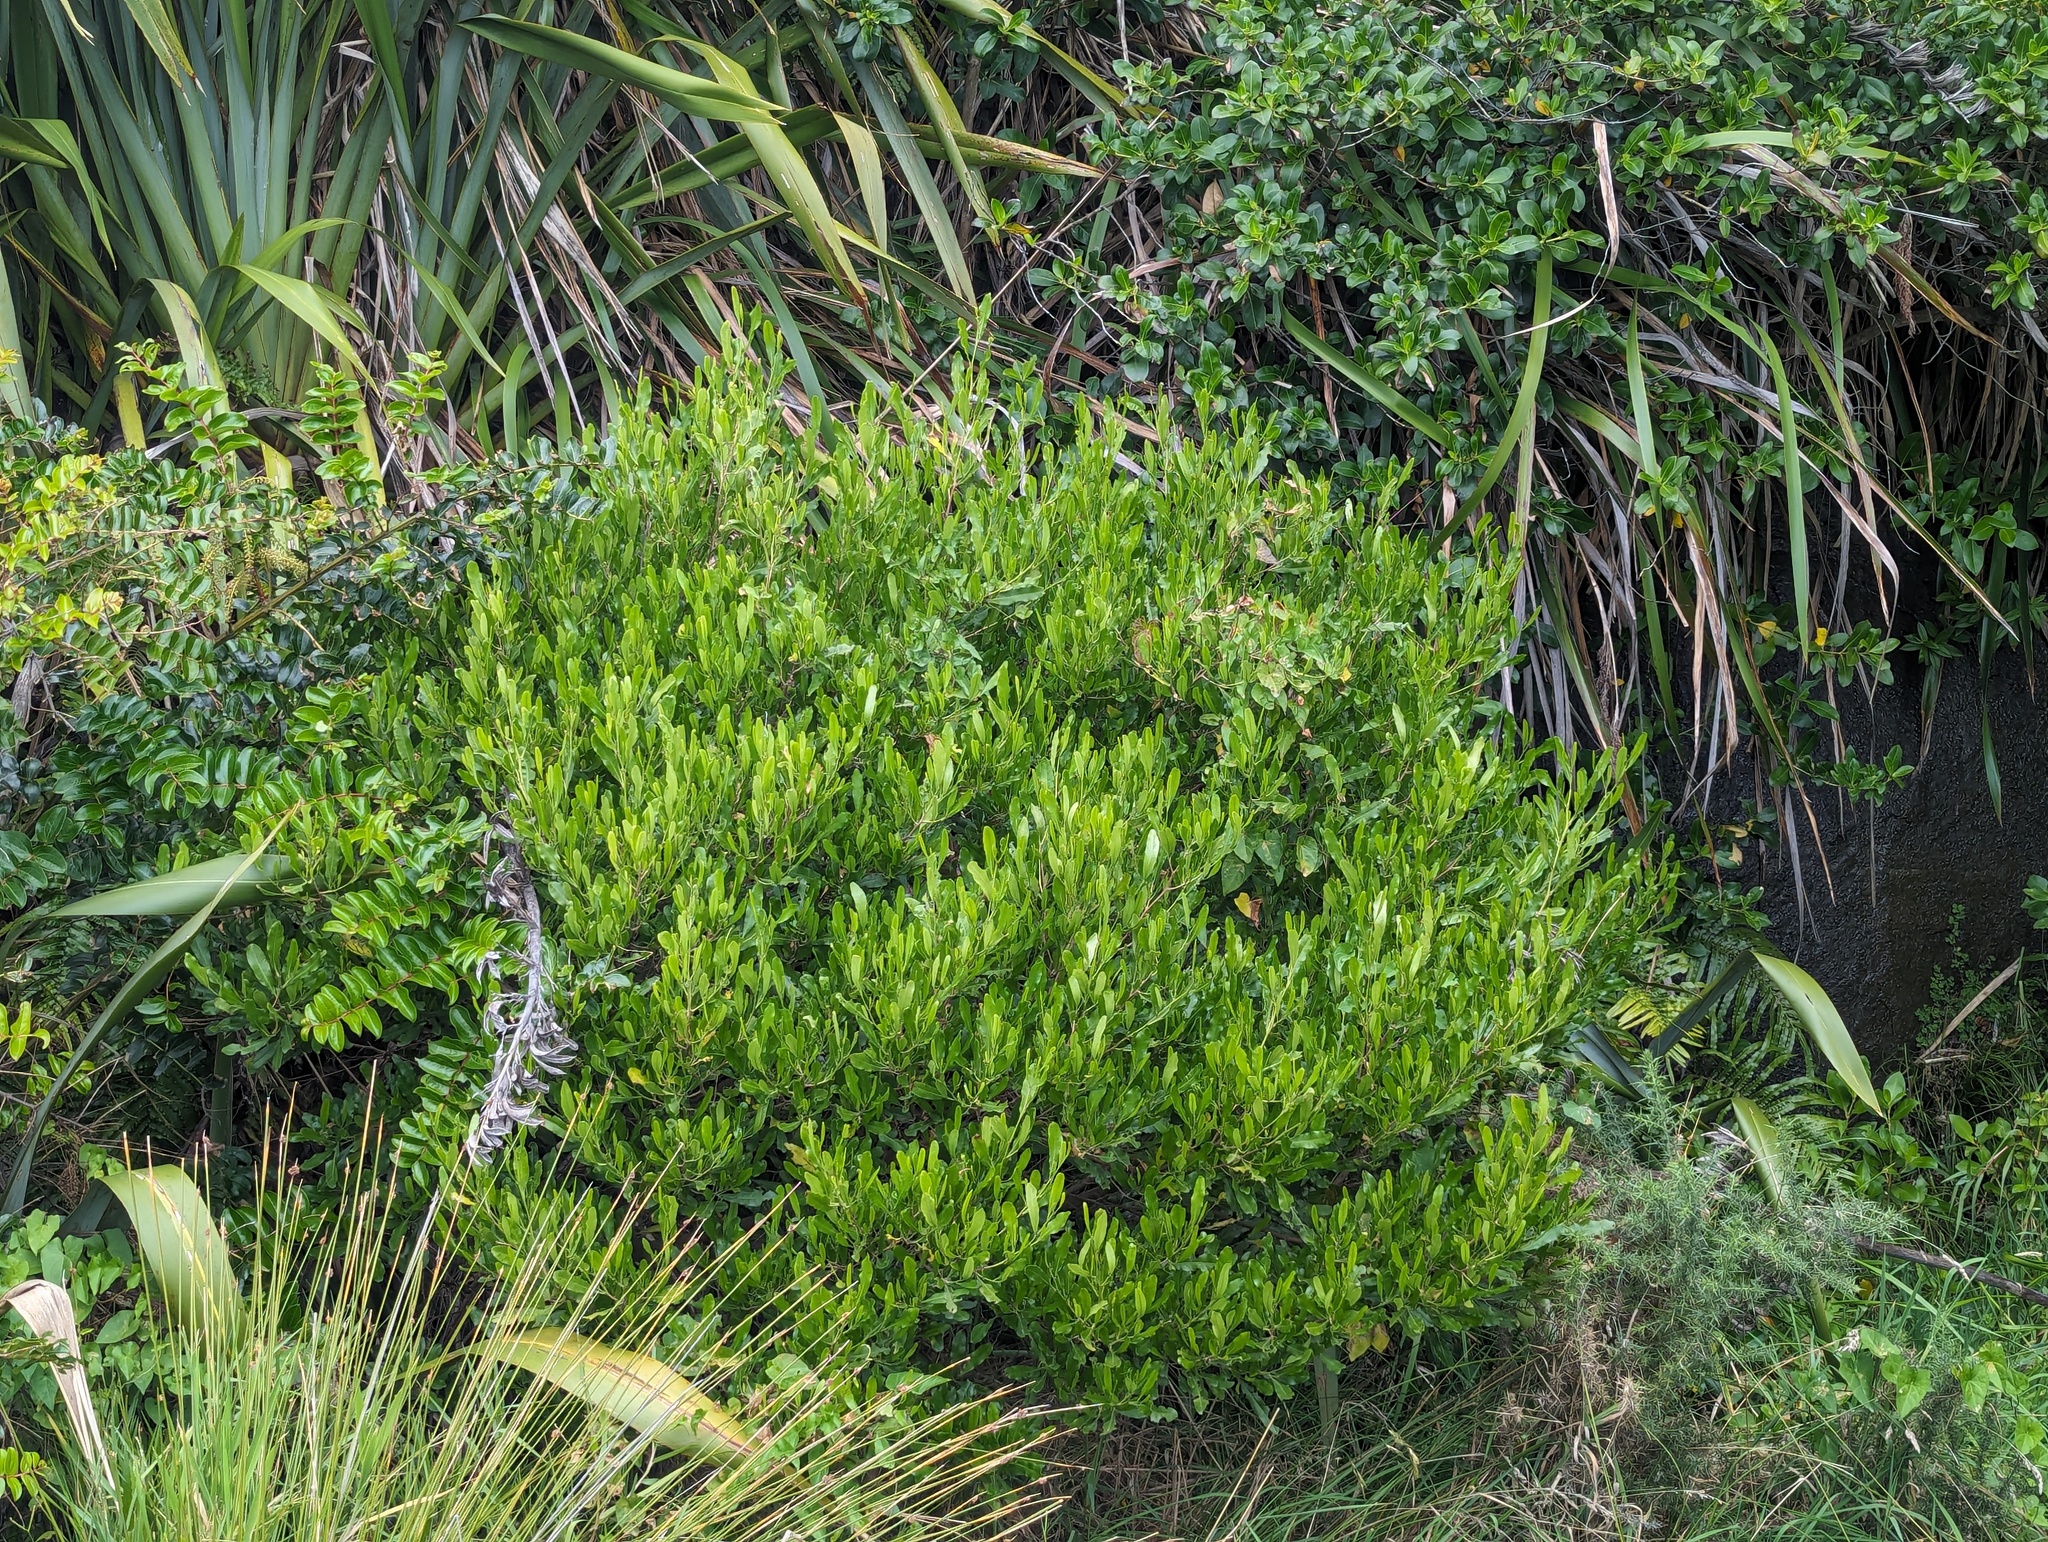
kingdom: Plantae
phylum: Tracheophyta
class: Magnoliopsida
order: Sapindales
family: Sapindaceae
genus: Dodonaea
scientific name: Dodonaea viscosa
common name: Hopbush
